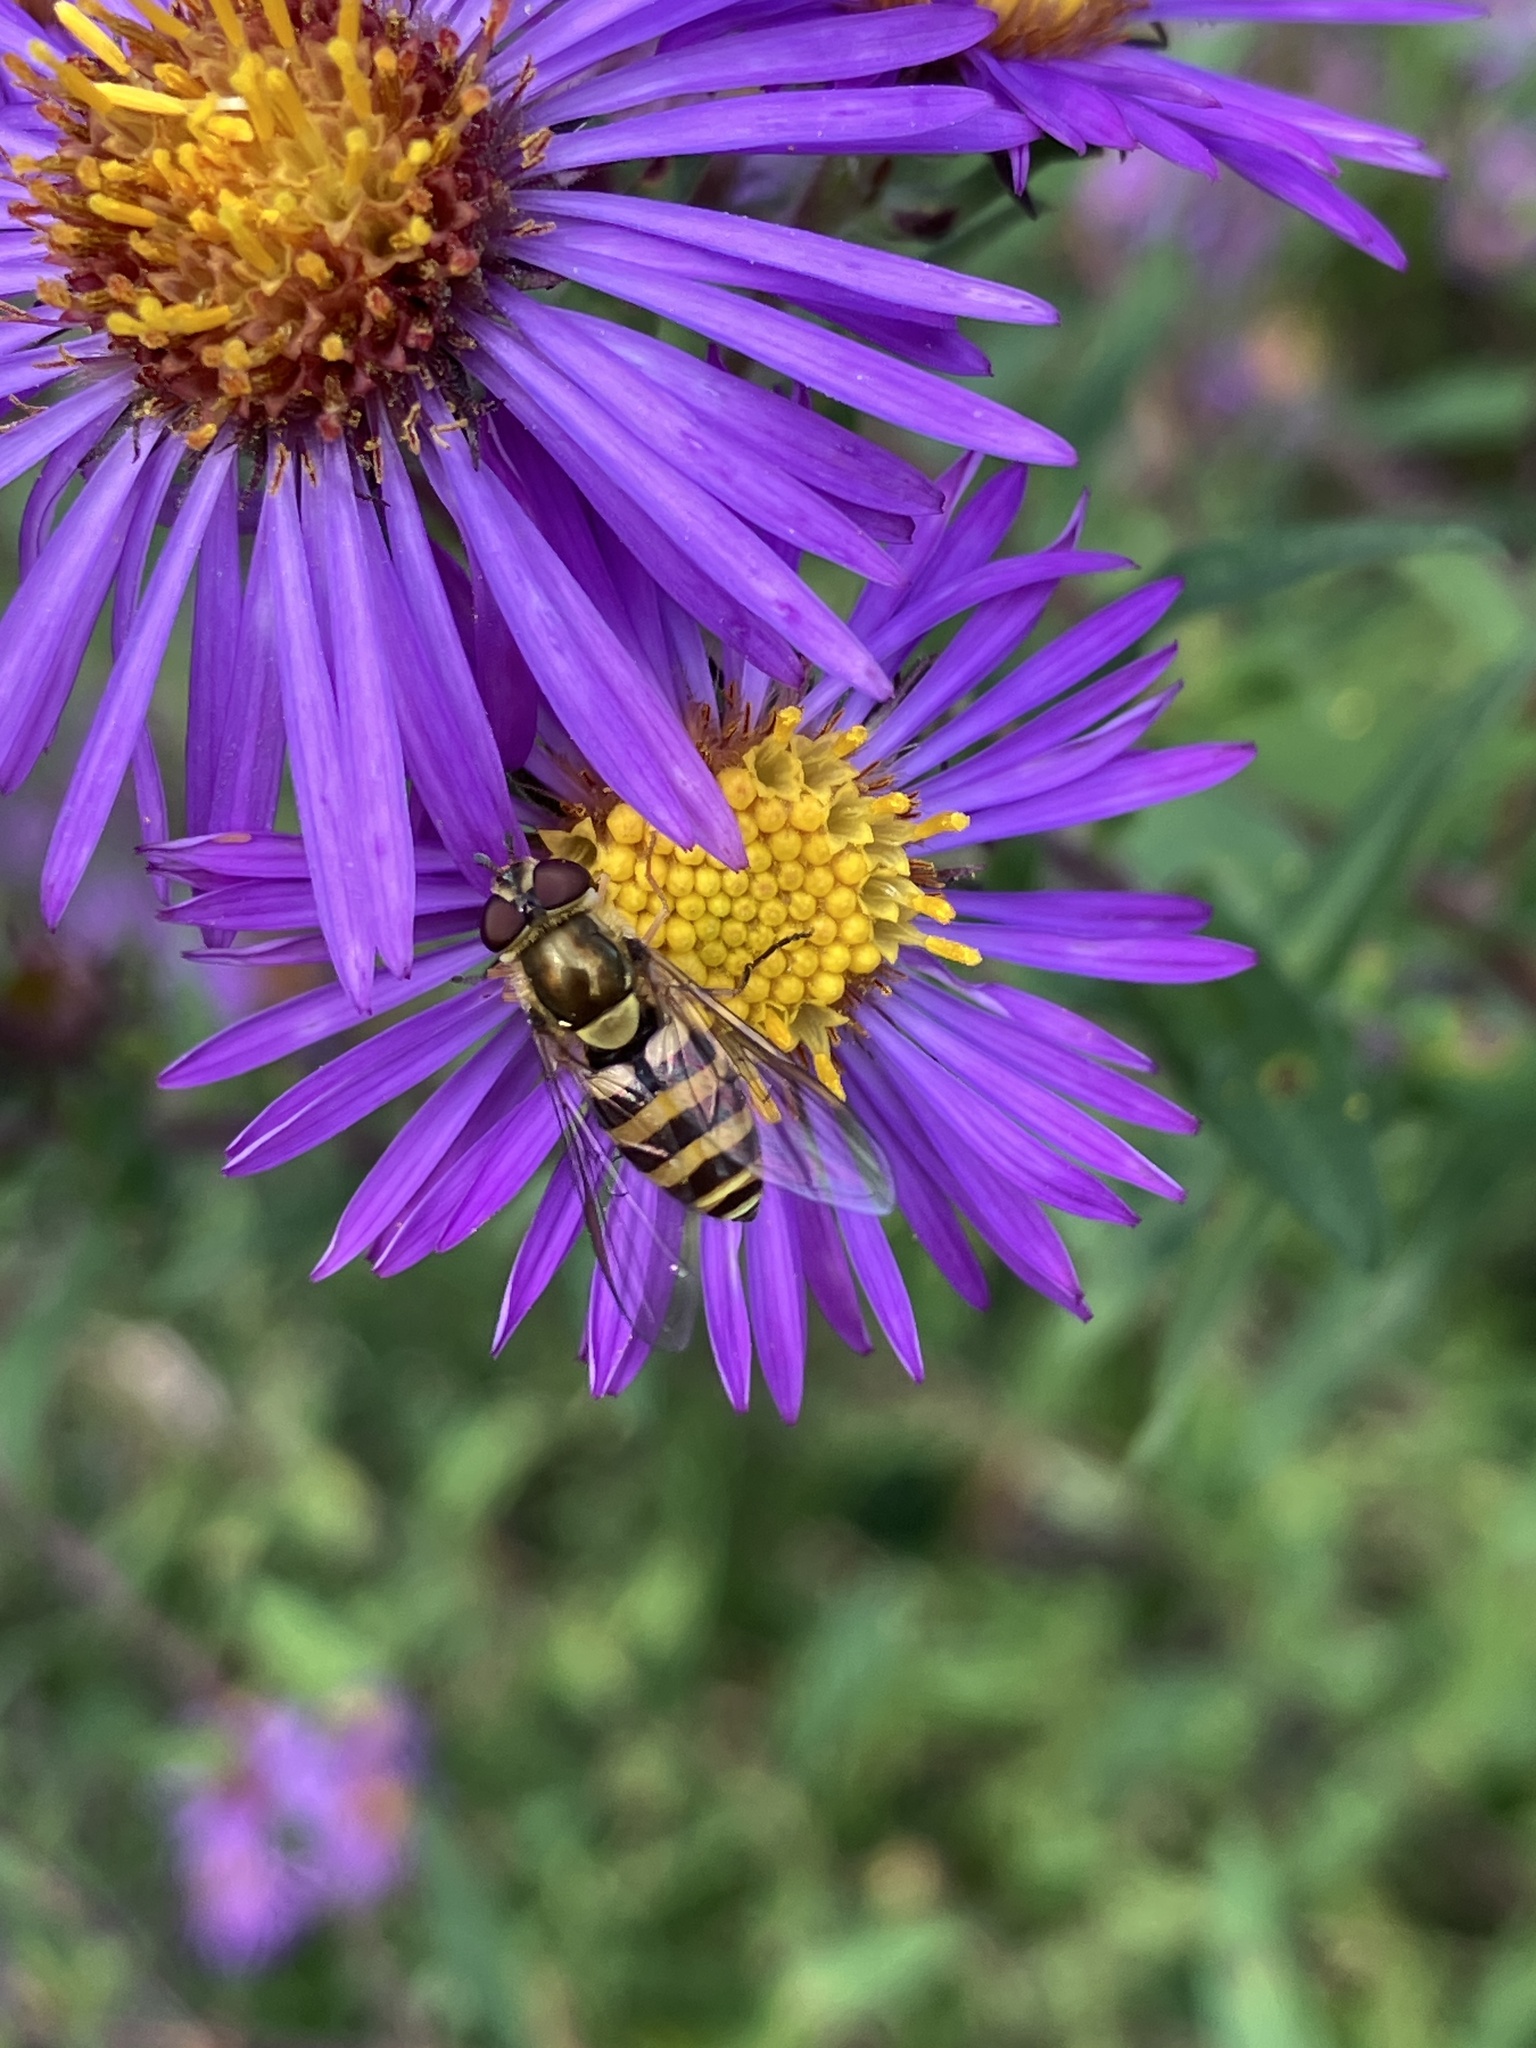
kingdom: Animalia
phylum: Arthropoda
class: Insecta
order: Diptera
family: Syrphidae
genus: Epistrophe
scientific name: Epistrophe grossulariae
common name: Black-horned smoothtail
